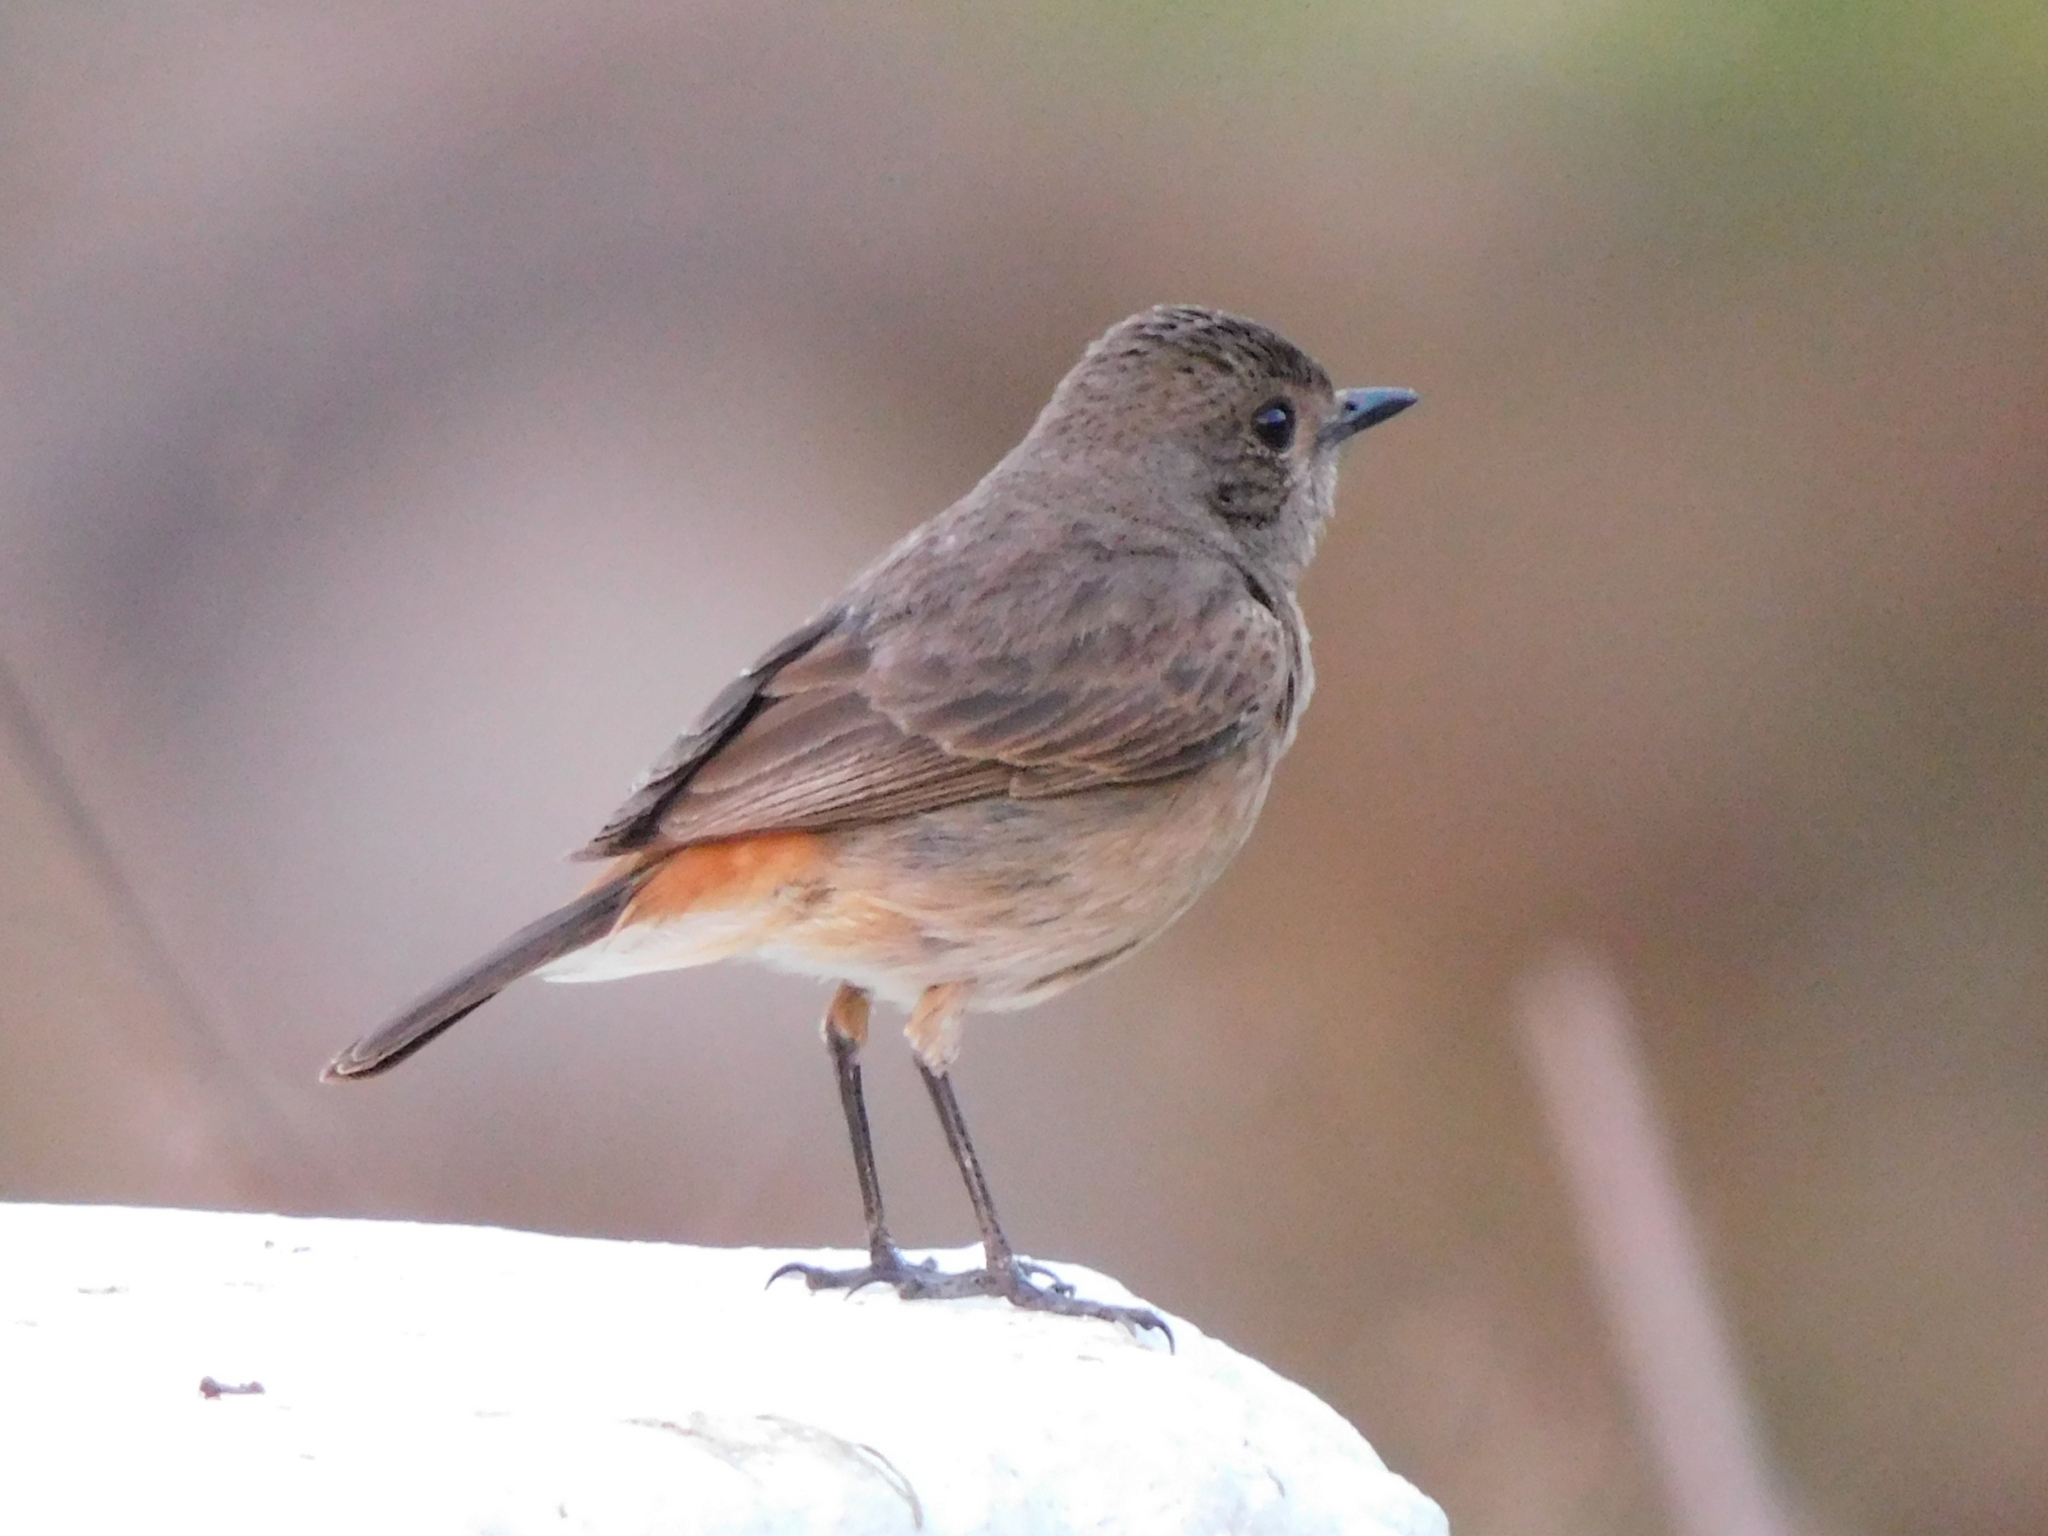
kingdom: Animalia
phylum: Chordata
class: Aves
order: Passeriformes
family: Muscicapidae
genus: Saxicola
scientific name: Saxicola caprata
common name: Pied bush chat
